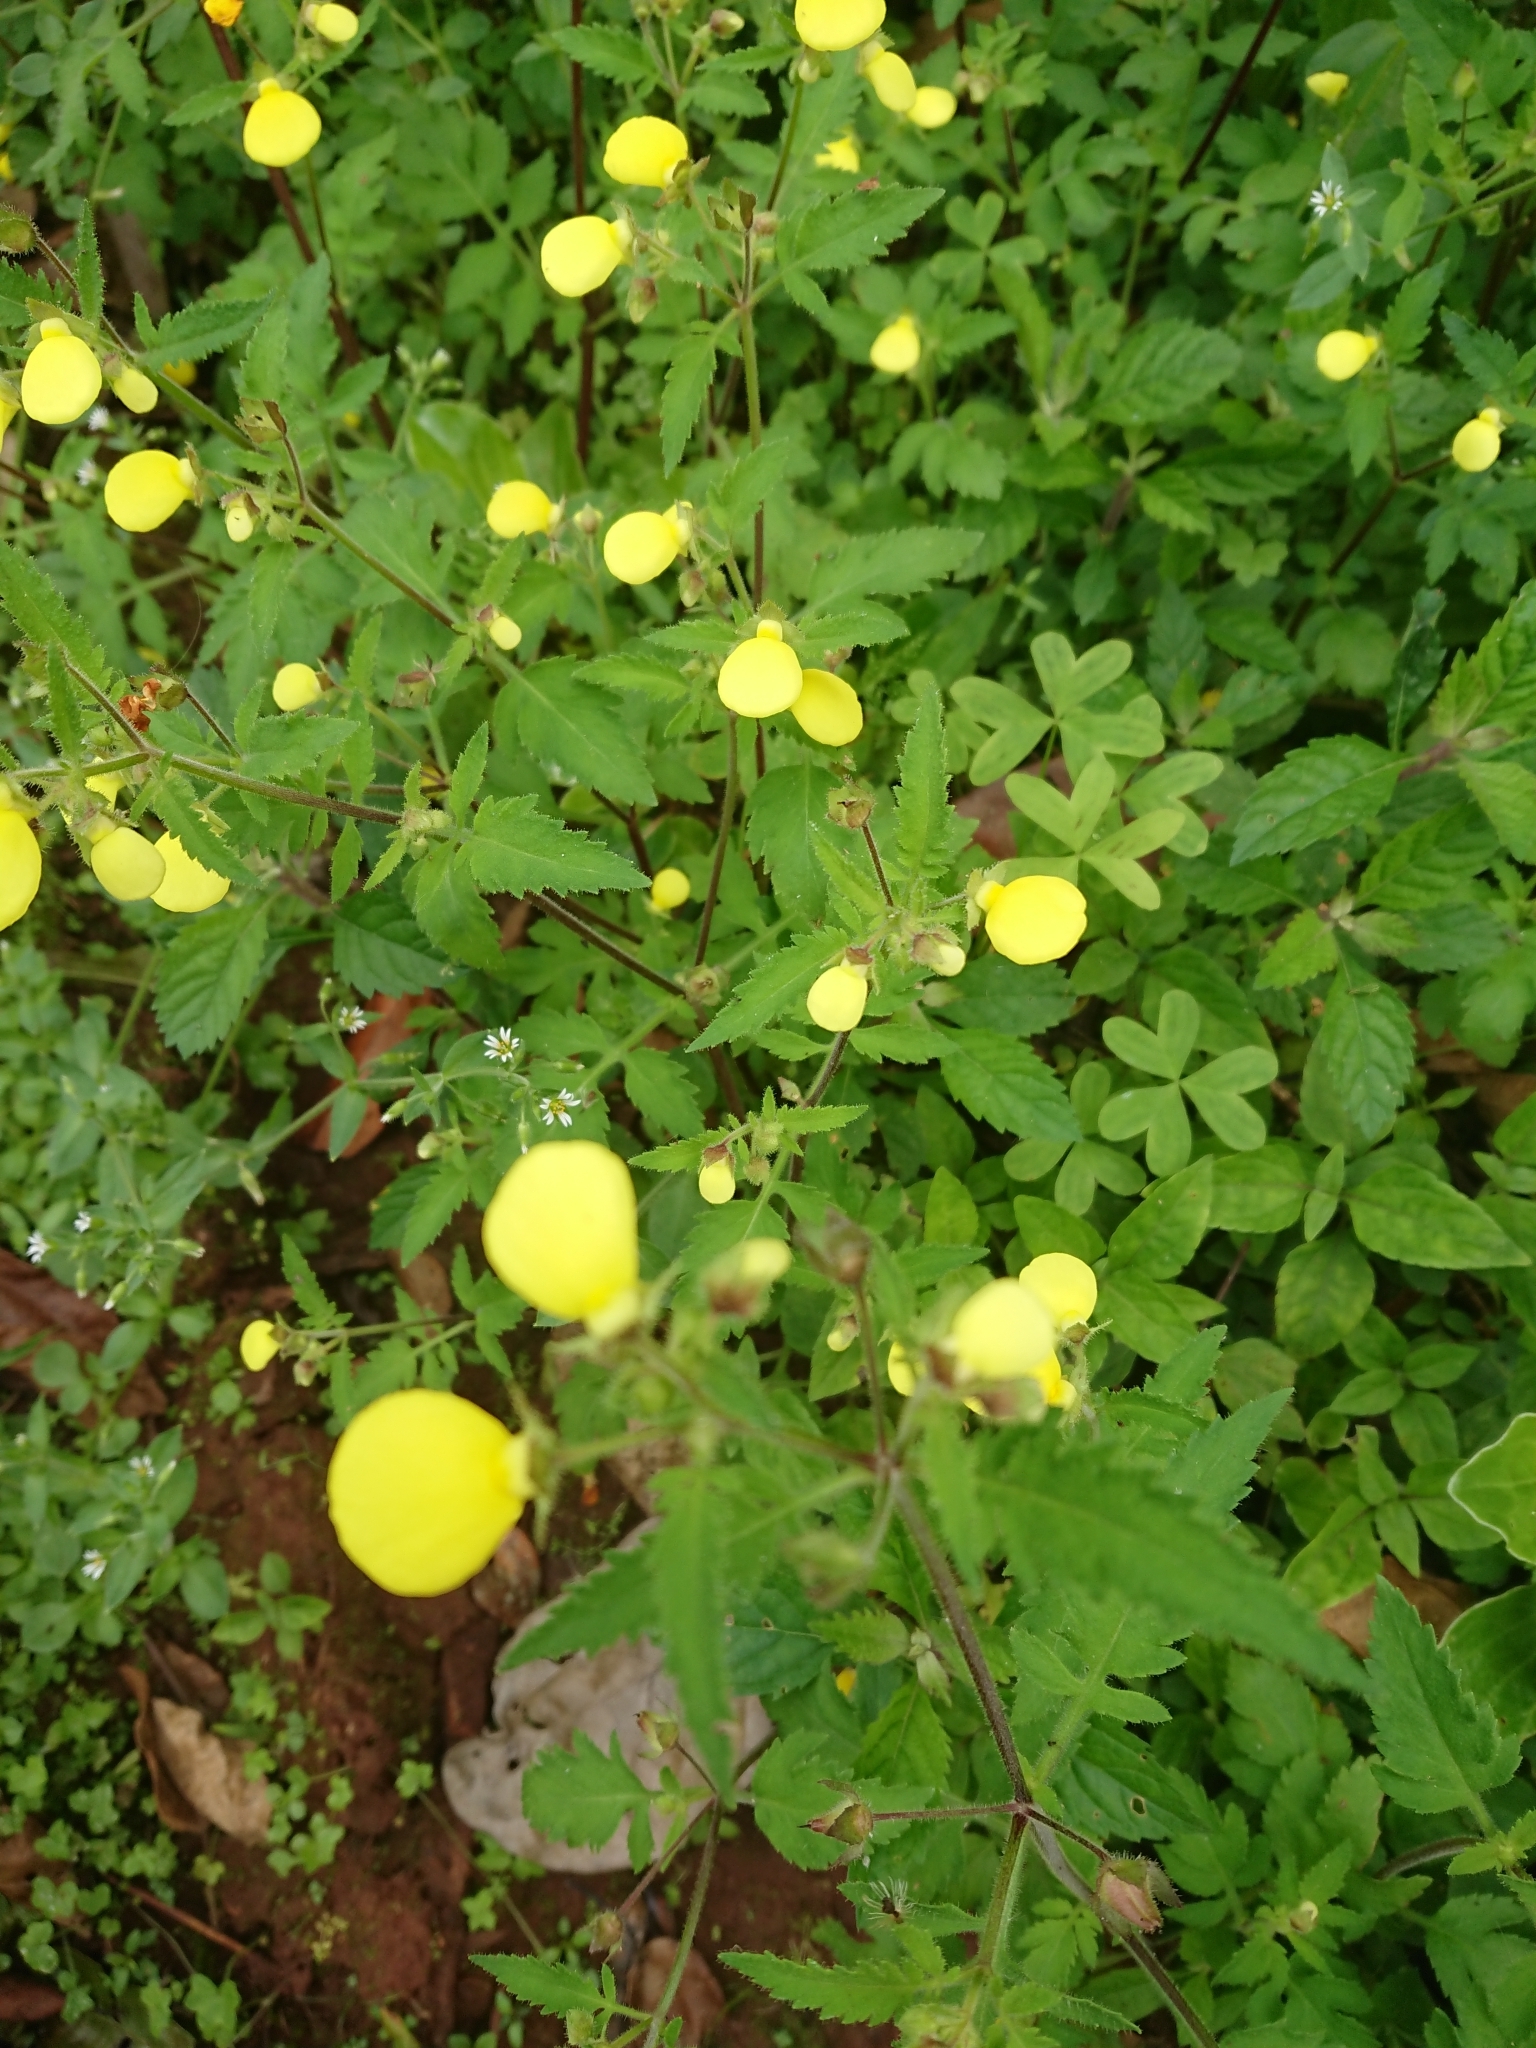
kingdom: Plantae
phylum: Tracheophyta
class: Magnoliopsida
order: Lamiales
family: Calceolariaceae
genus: Calceolaria
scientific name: Calceolaria tripartita
